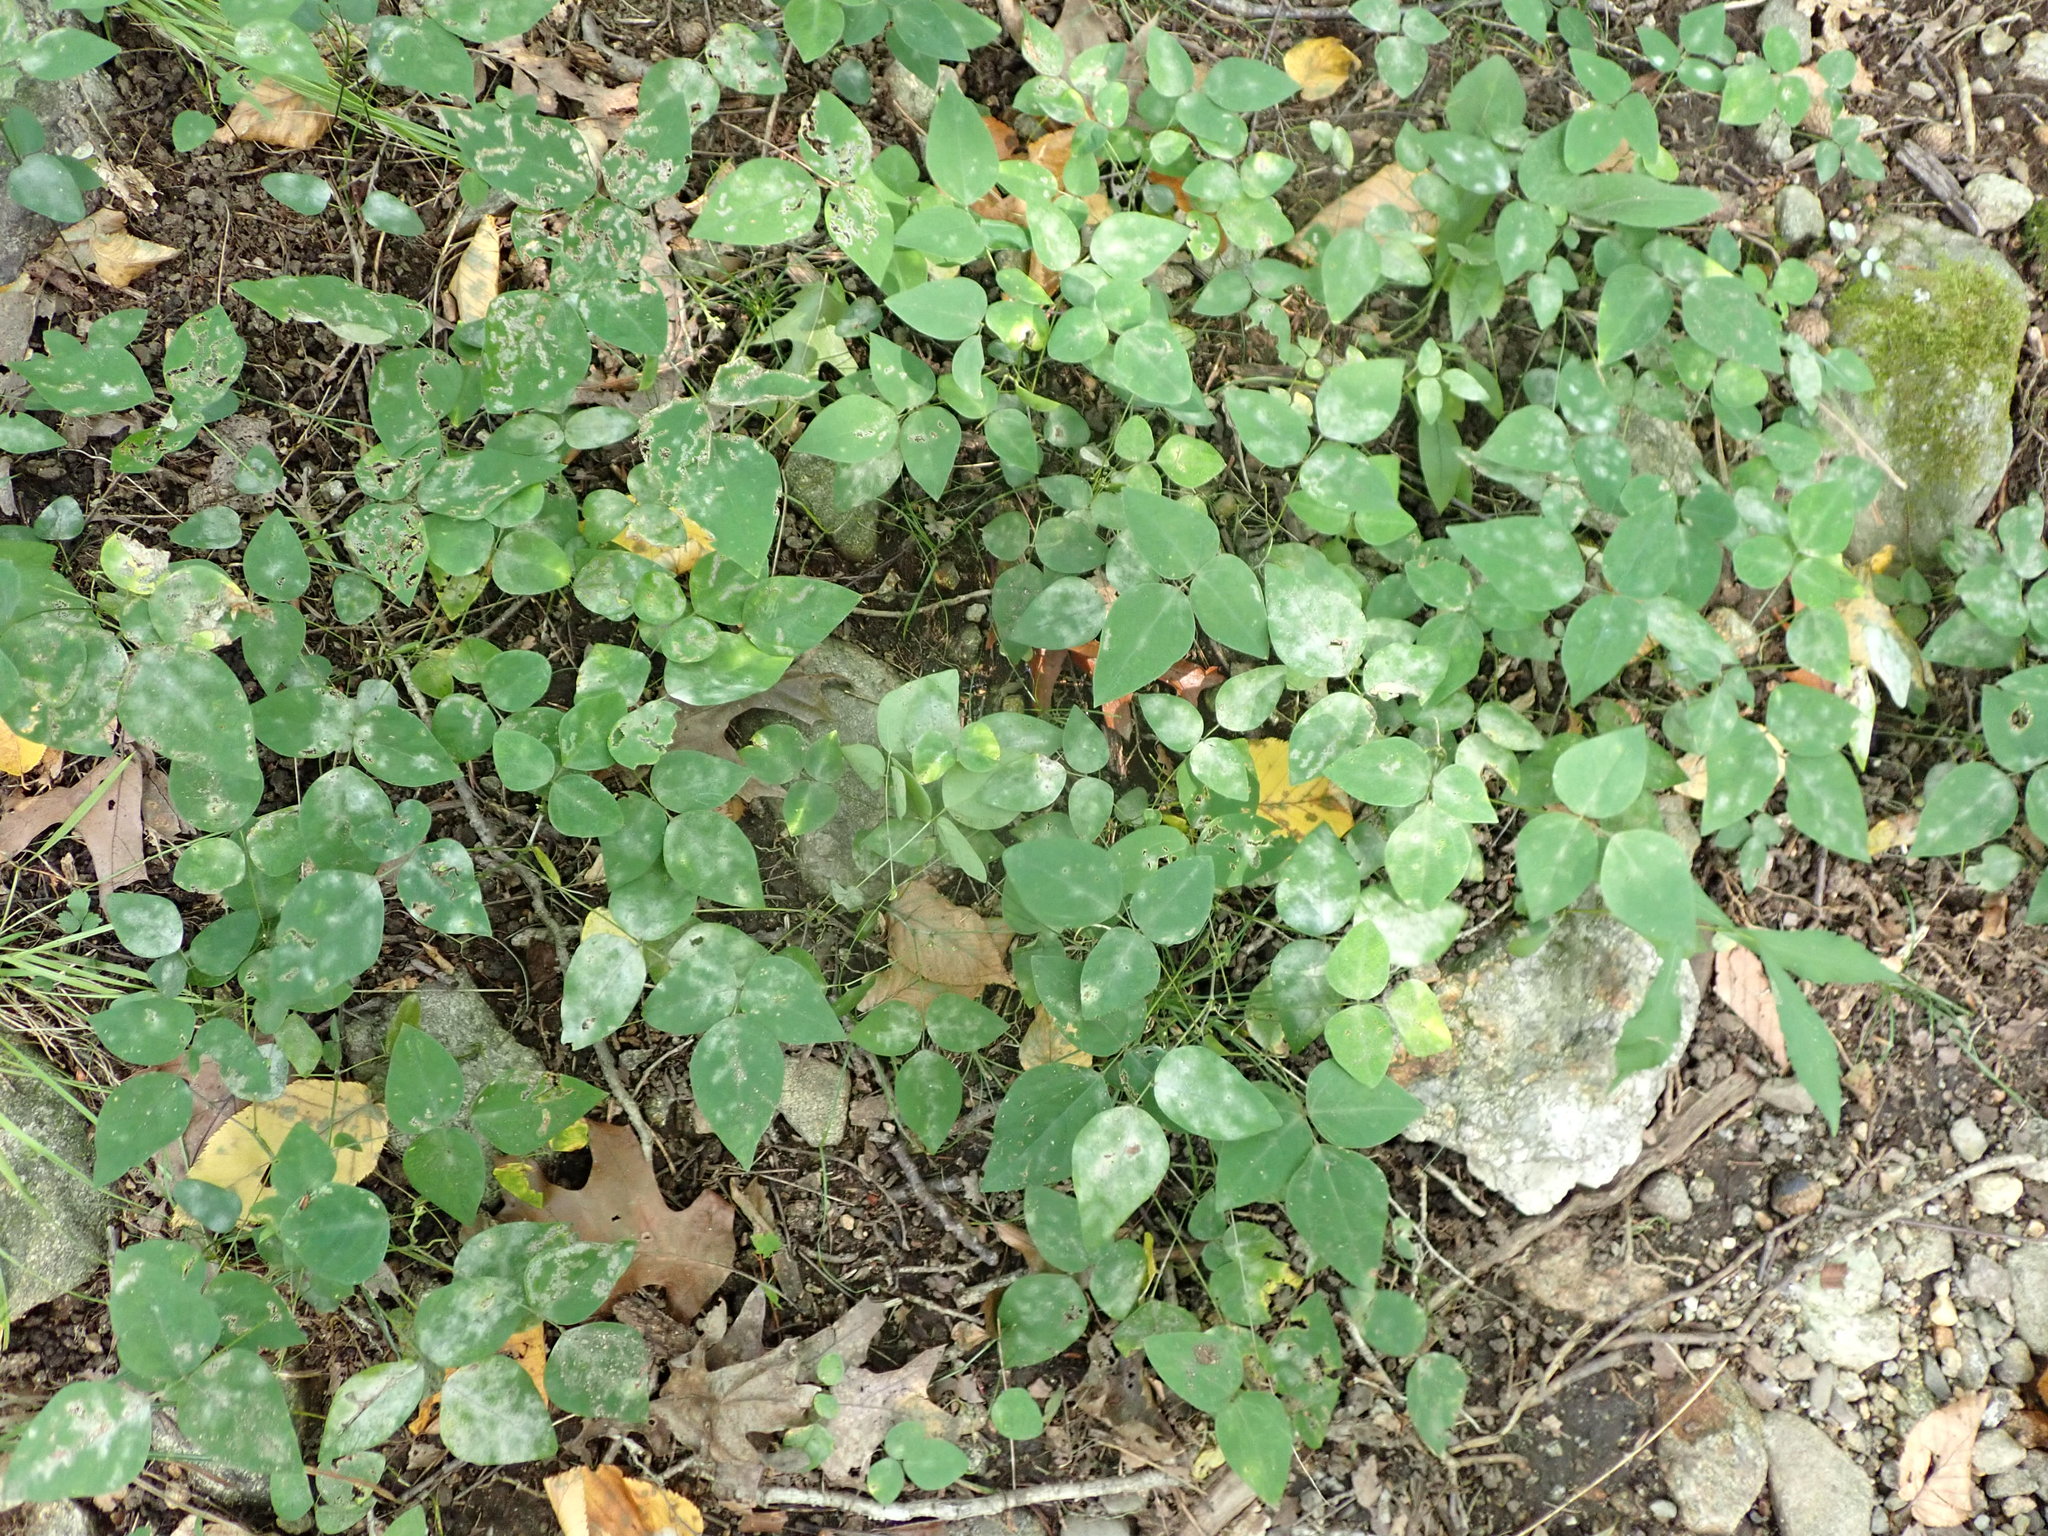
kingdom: Plantae
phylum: Tracheophyta
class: Magnoliopsida
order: Fabales
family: Fabaceae
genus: Amphicarpaea
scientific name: Amphicarpaea bracteata
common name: American hog peanut
